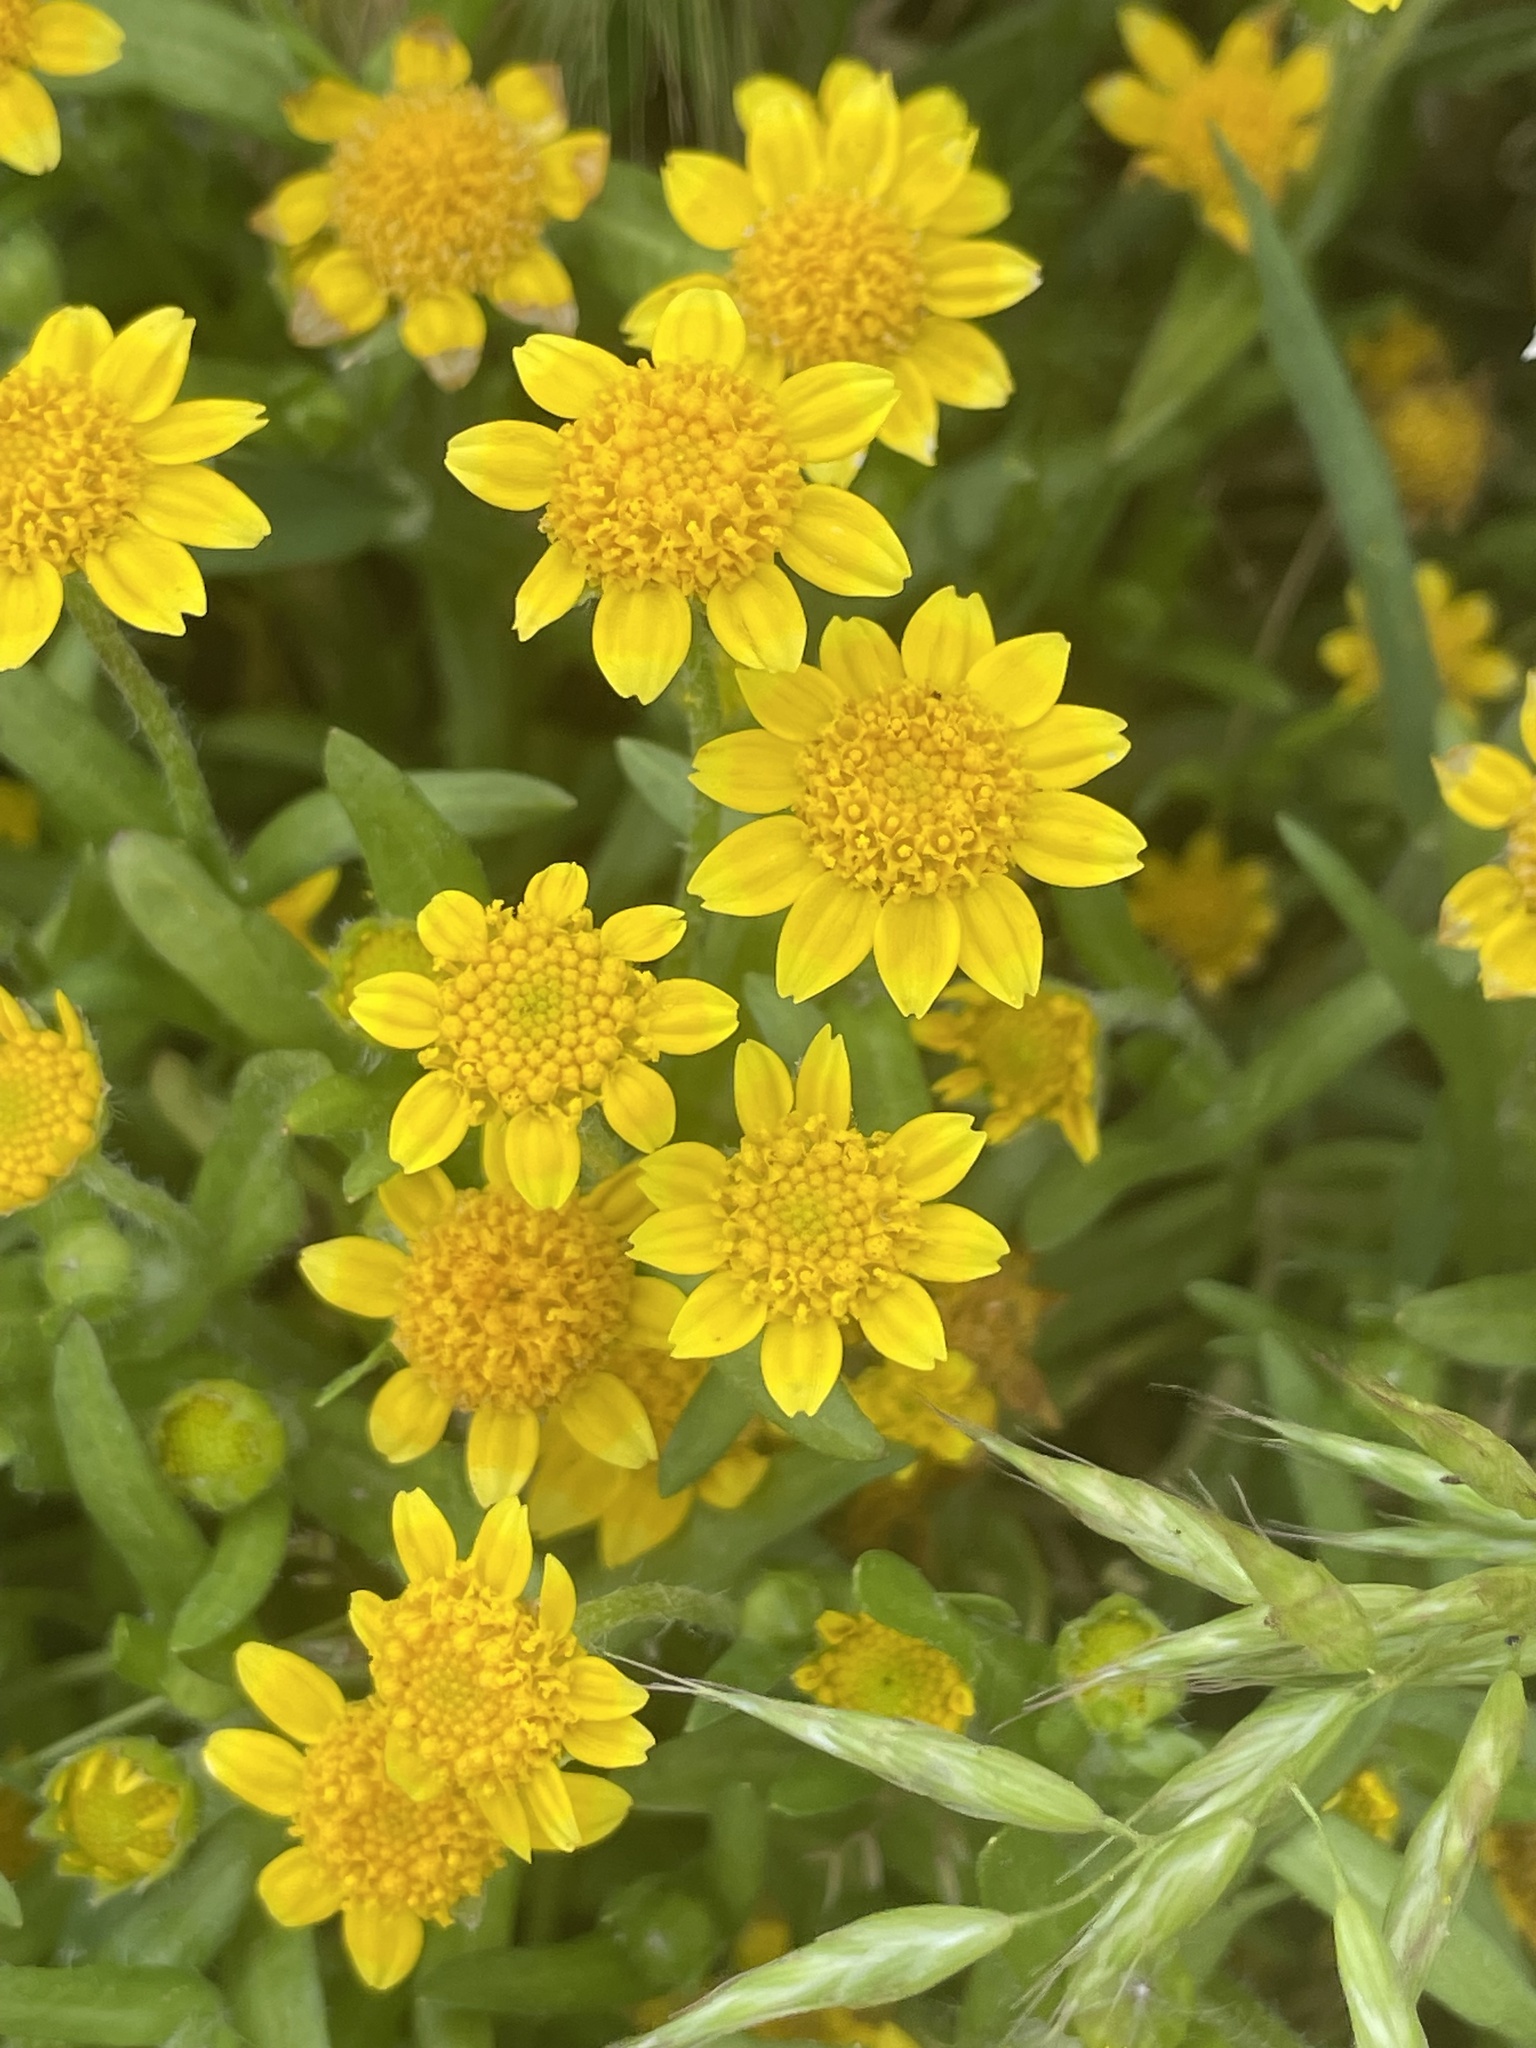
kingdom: Plantae
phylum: Tracheophyta
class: Magnoliopsida
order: Asterales
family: Asteraceae
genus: Lasthenia
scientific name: Lasthenia californica
